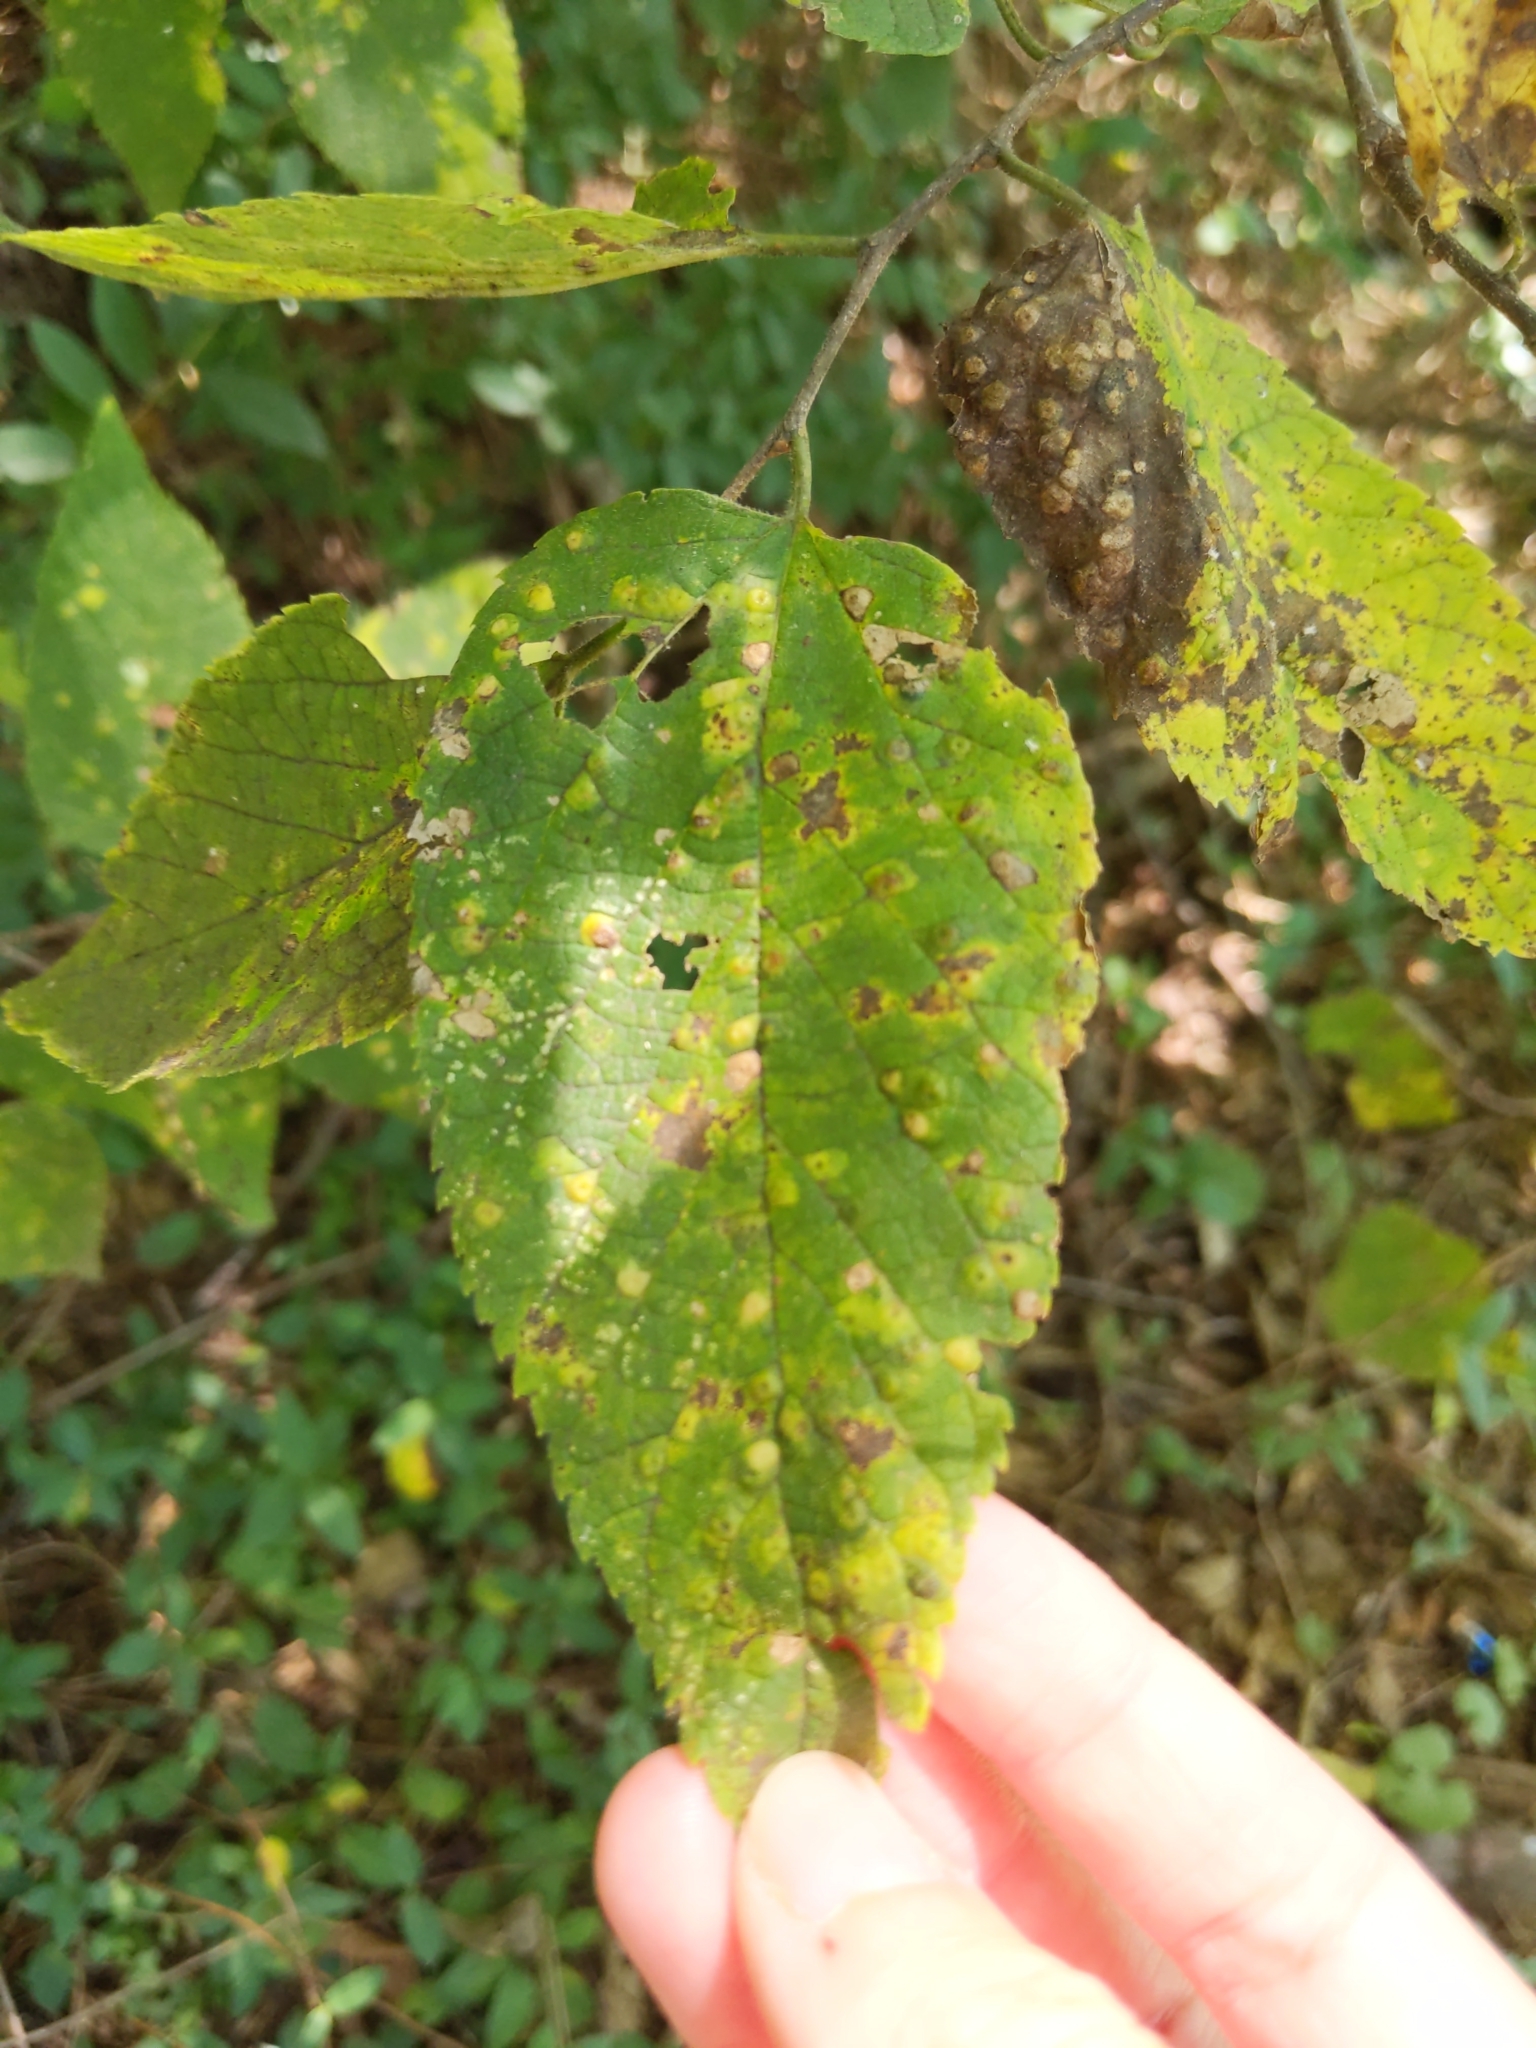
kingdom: Animalia
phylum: Arthropoda
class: Insecta
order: Hemiptera
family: Aphalaridae
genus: Pachypsylla
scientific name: Pachypsylla celtidisvesicula
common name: Hackberry blister gall psyllid
